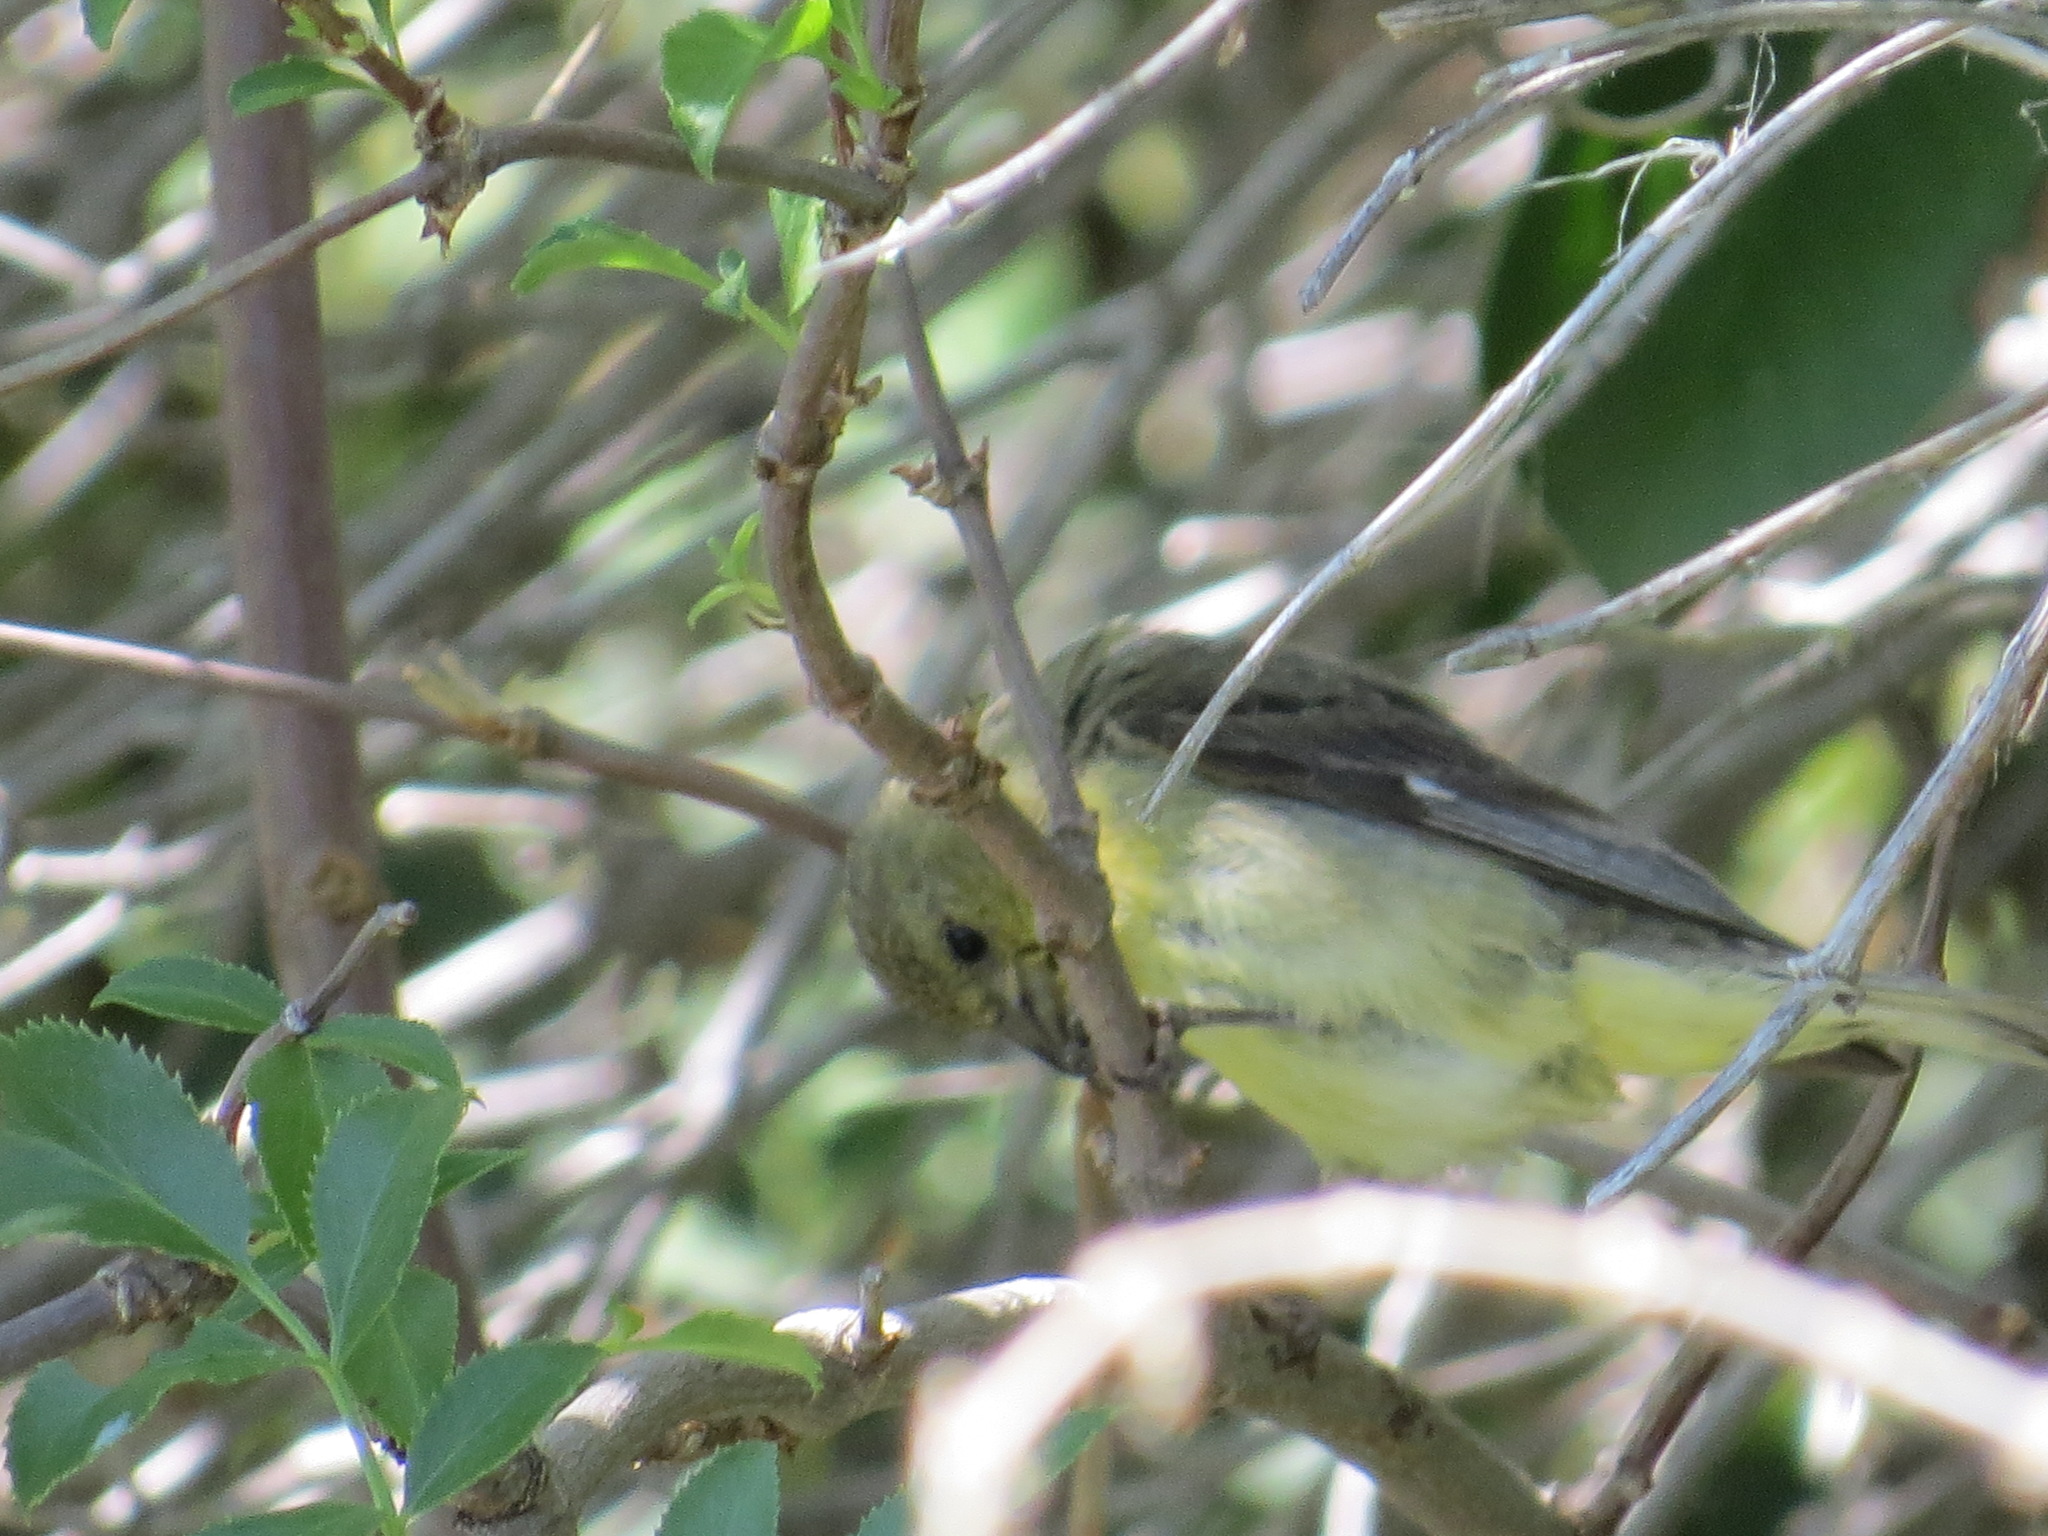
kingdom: Animalia
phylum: Chordata
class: Aves
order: Passeriformes
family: Fringillidae
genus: Spinus
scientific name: Spinus psaltria
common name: Lesser goldfinch
